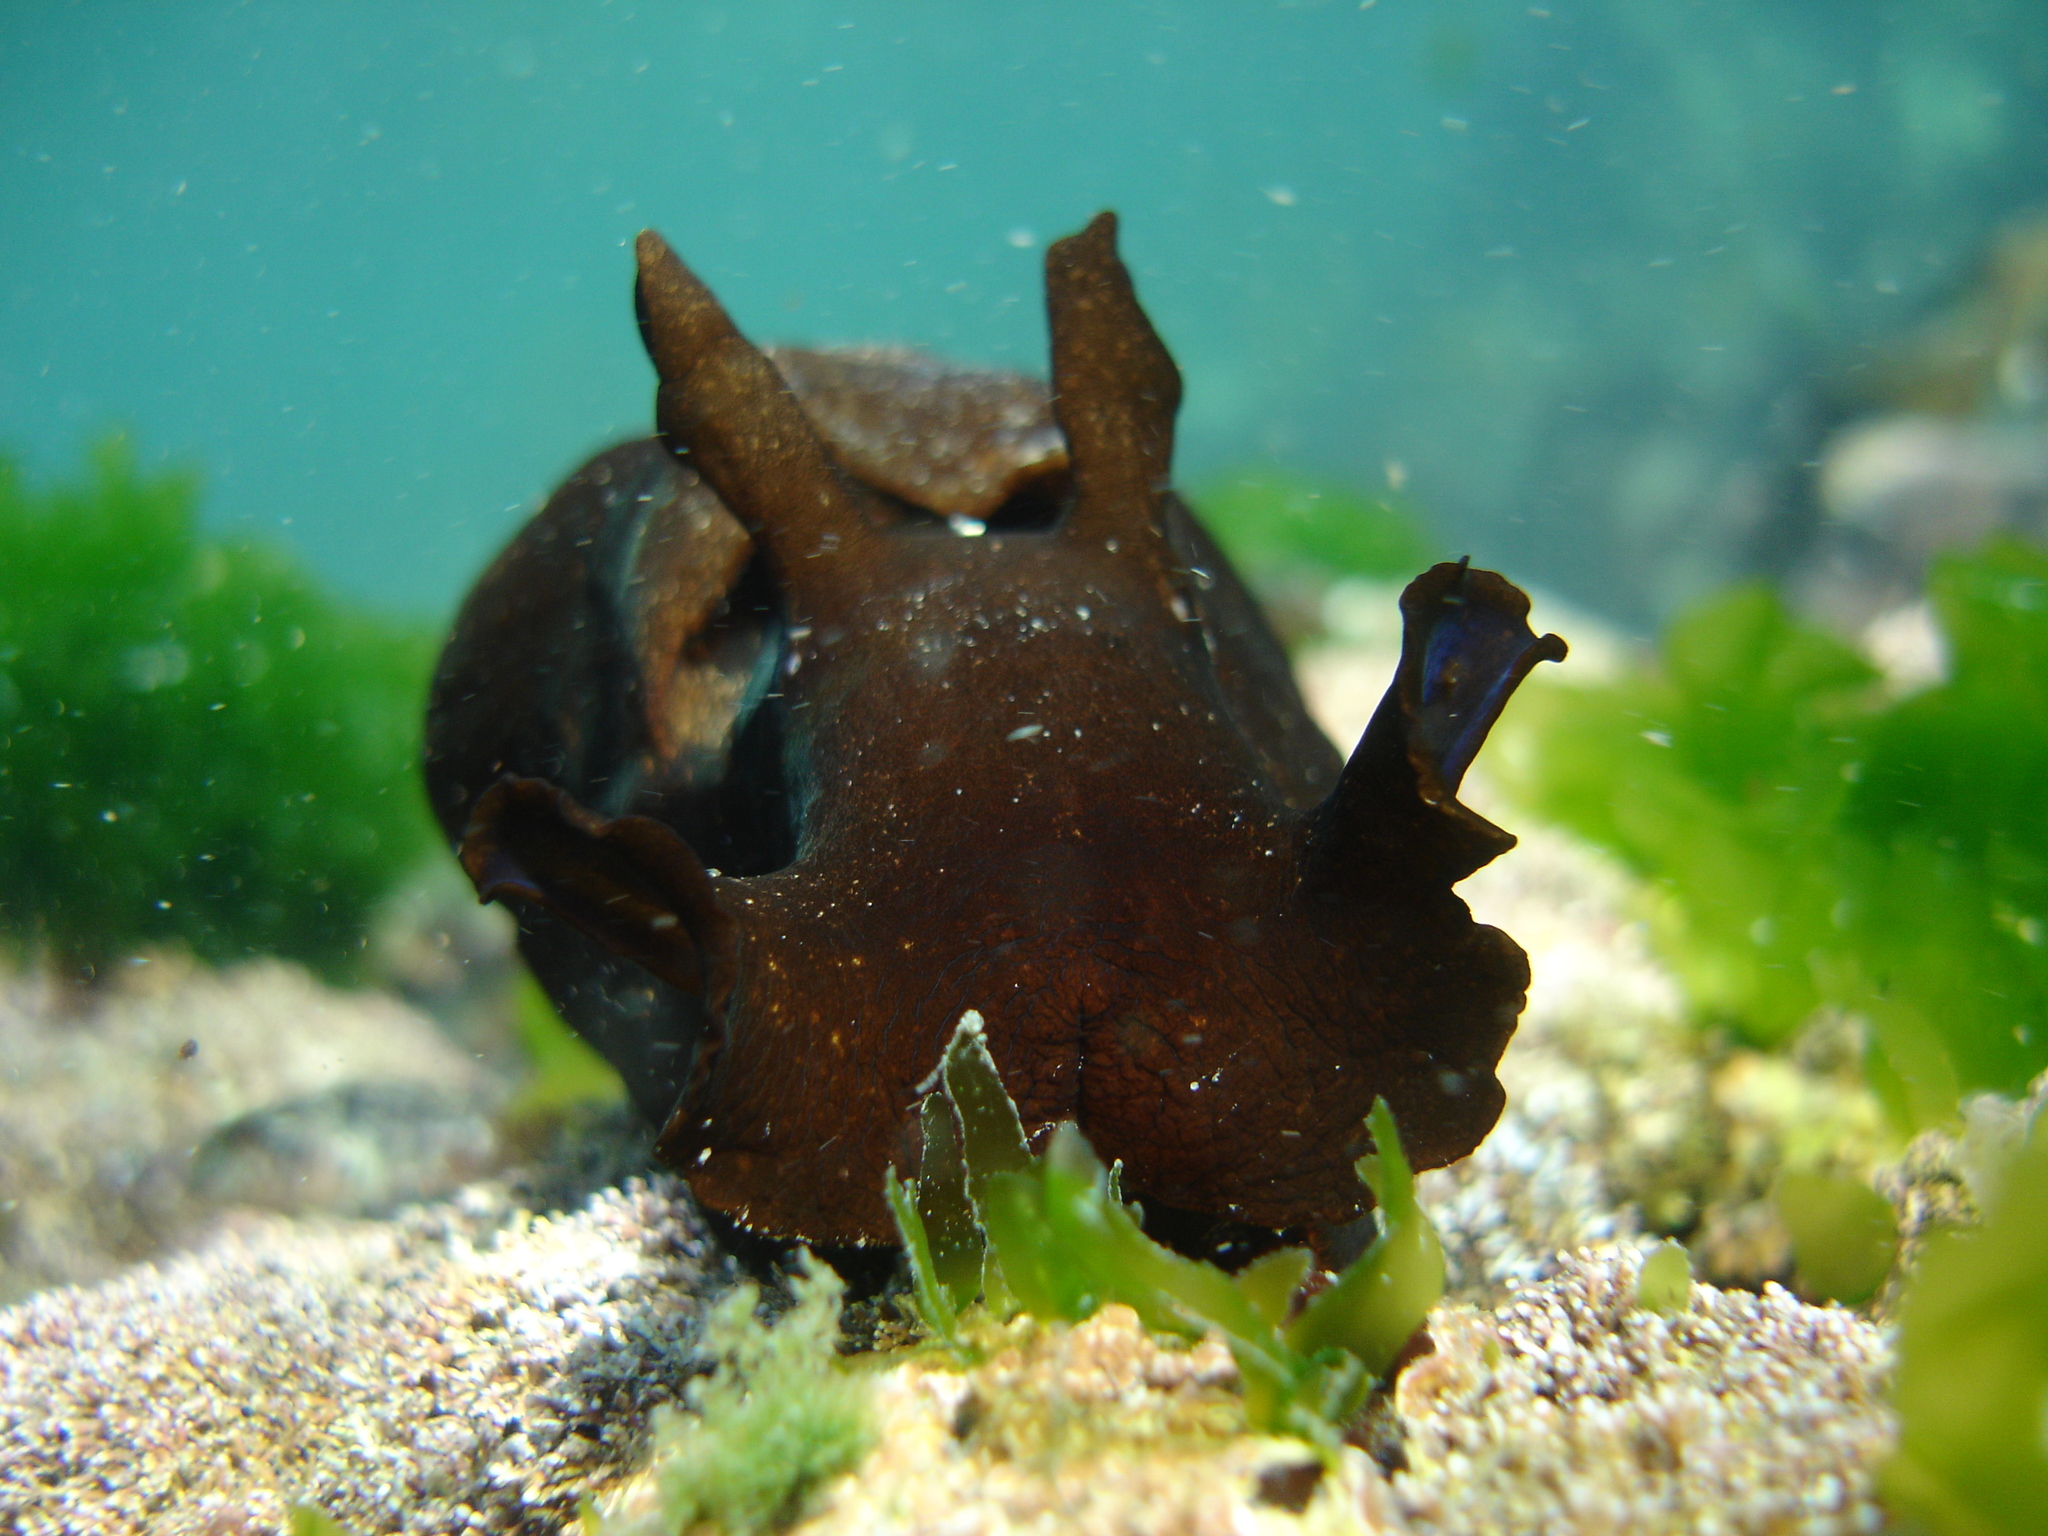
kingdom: Animalia
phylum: Mollusca
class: Gastropoda
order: Aplysiida
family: Aplysiidae
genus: Aplysia
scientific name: Aplysia juliana
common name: Walking sea hare
